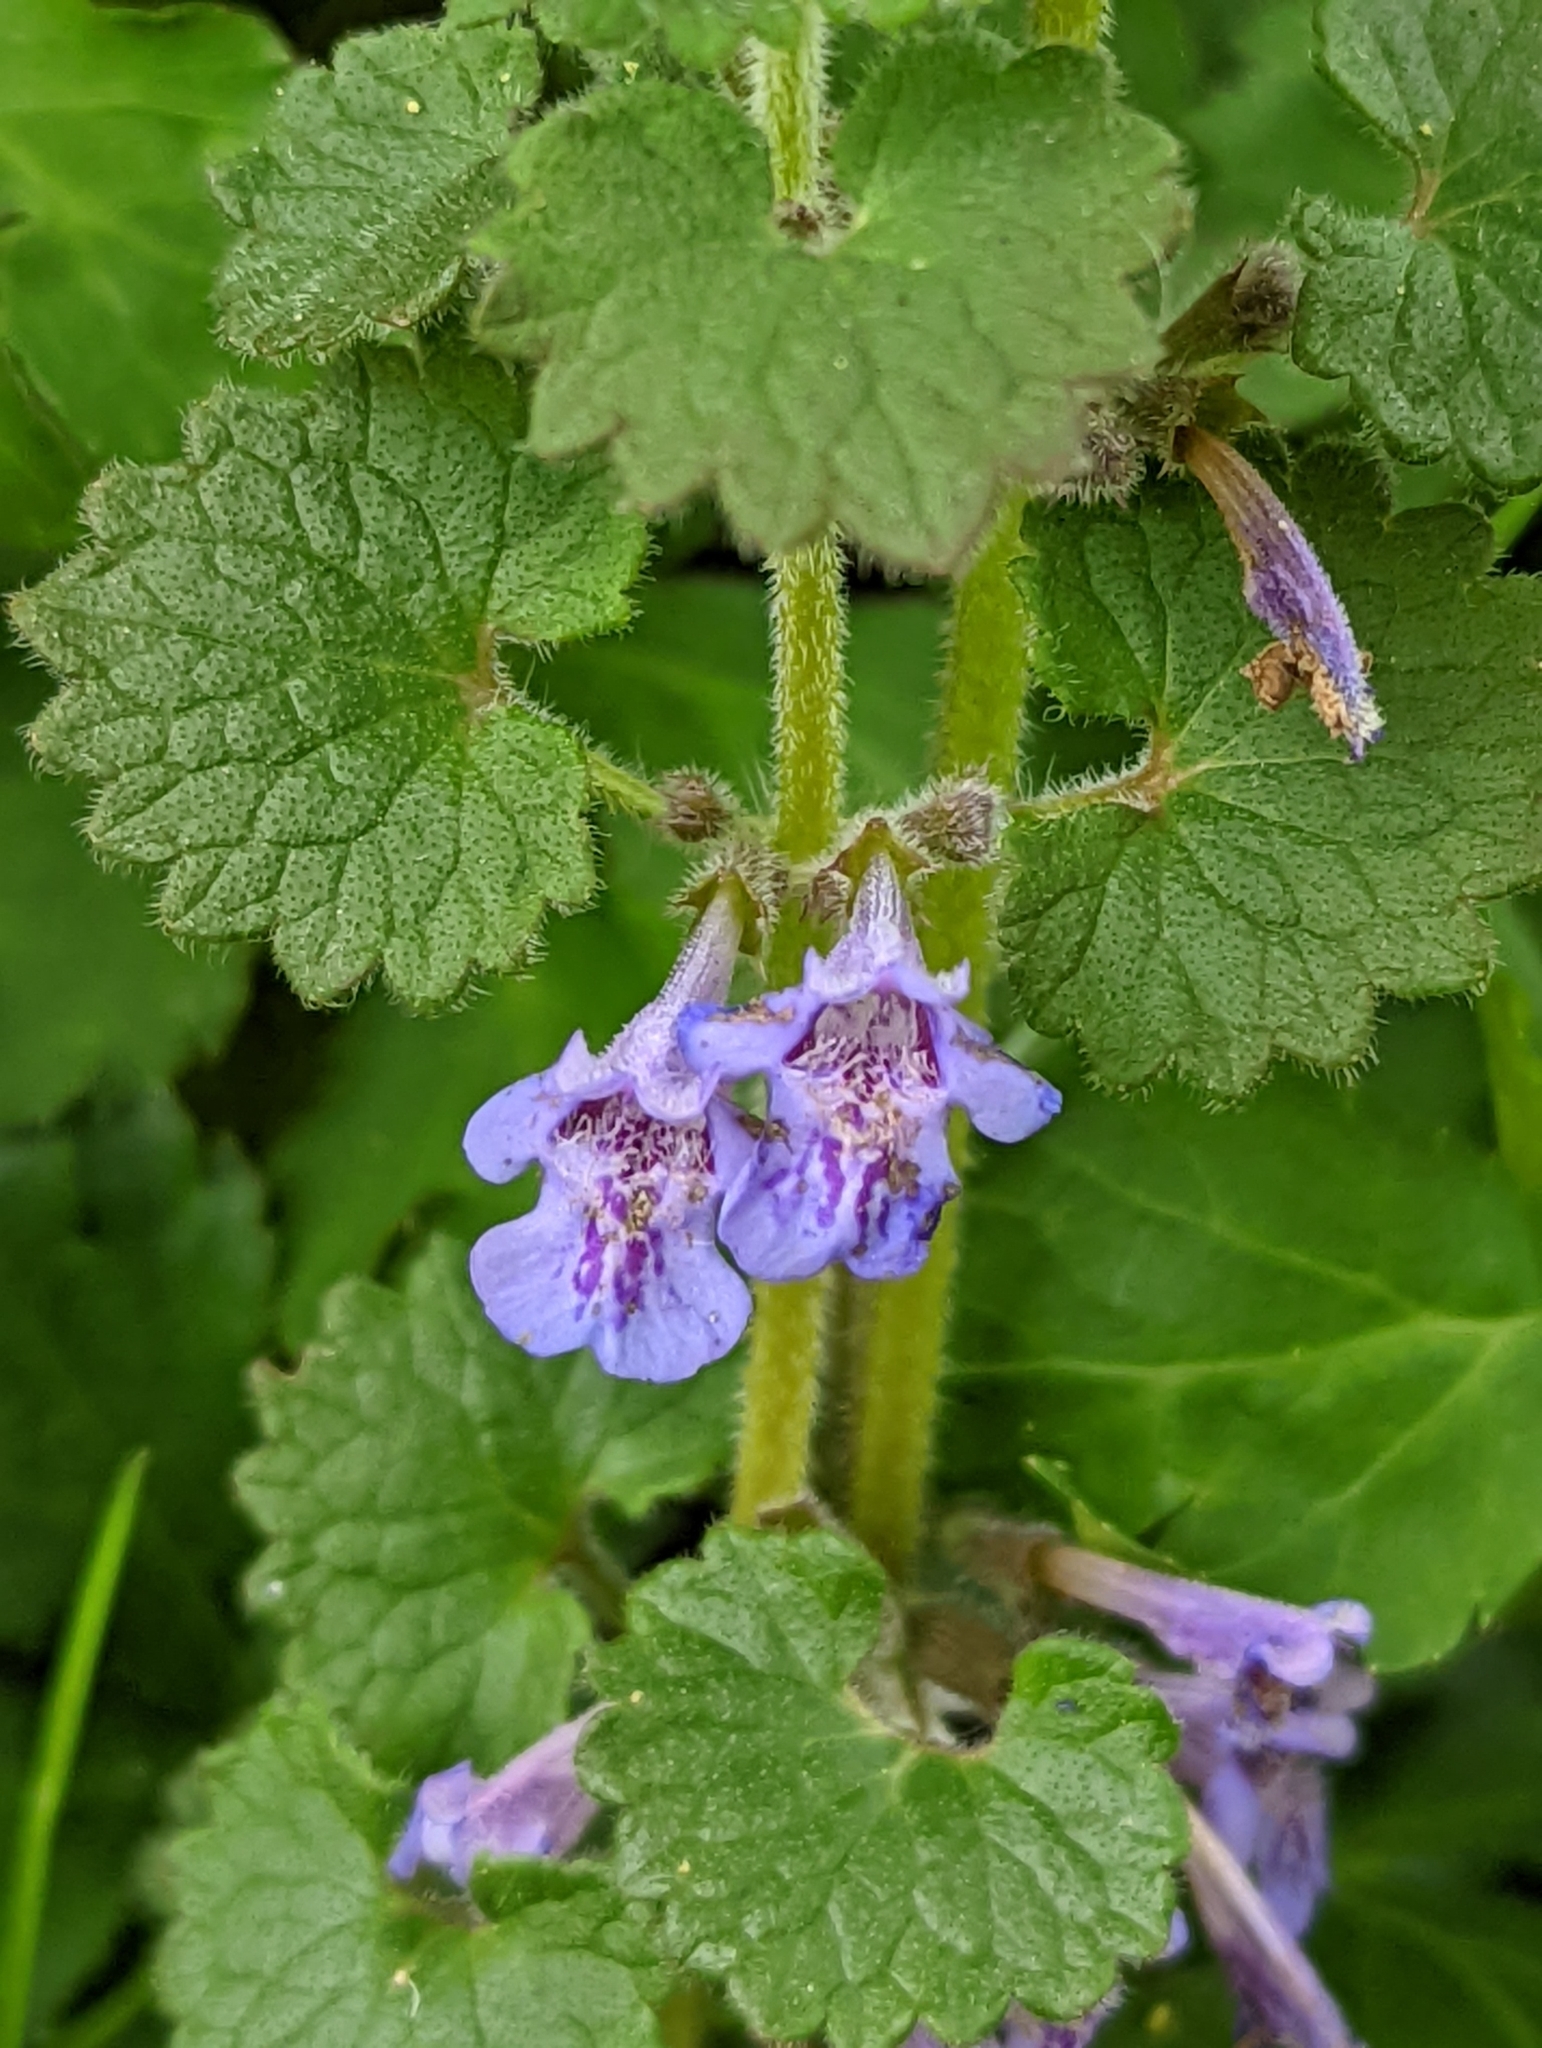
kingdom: Plantae
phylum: Tracheophyta
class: Magnoliopsida
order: Lamiales
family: Lamiaceae
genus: Glechoma
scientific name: Glechoma hederacea
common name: Ground ivy
